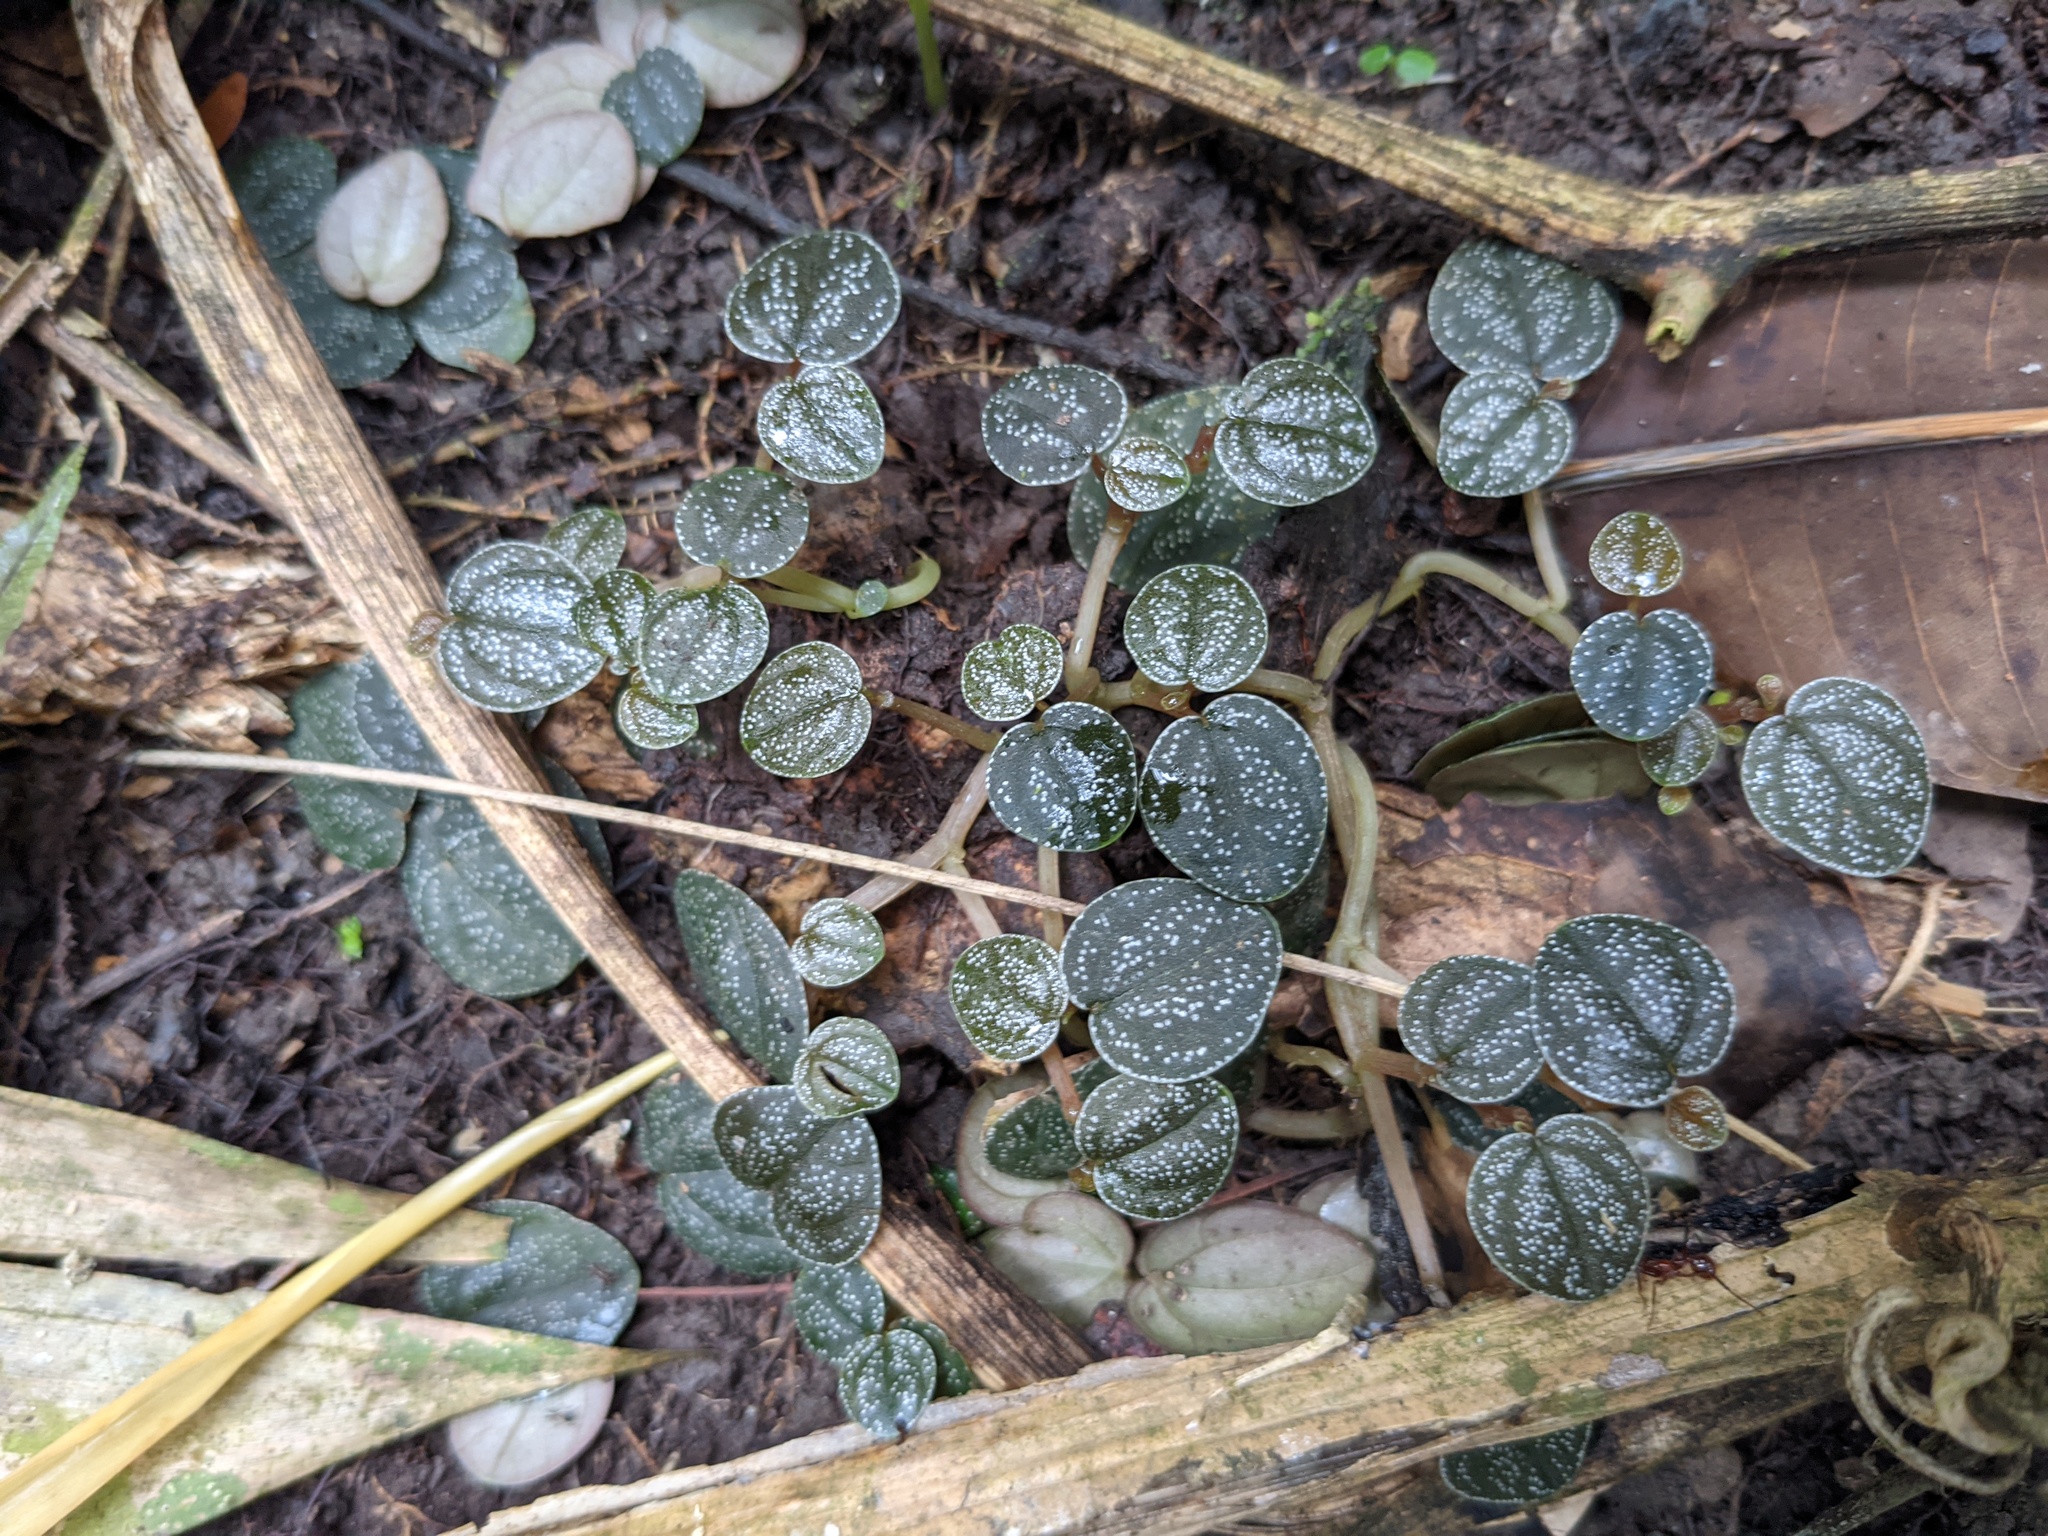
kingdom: Plantae
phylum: Tracheophyta
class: Magnoliopsida
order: Piperales
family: Piperaceae
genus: Peperomia
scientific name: Peperomia antoniana
